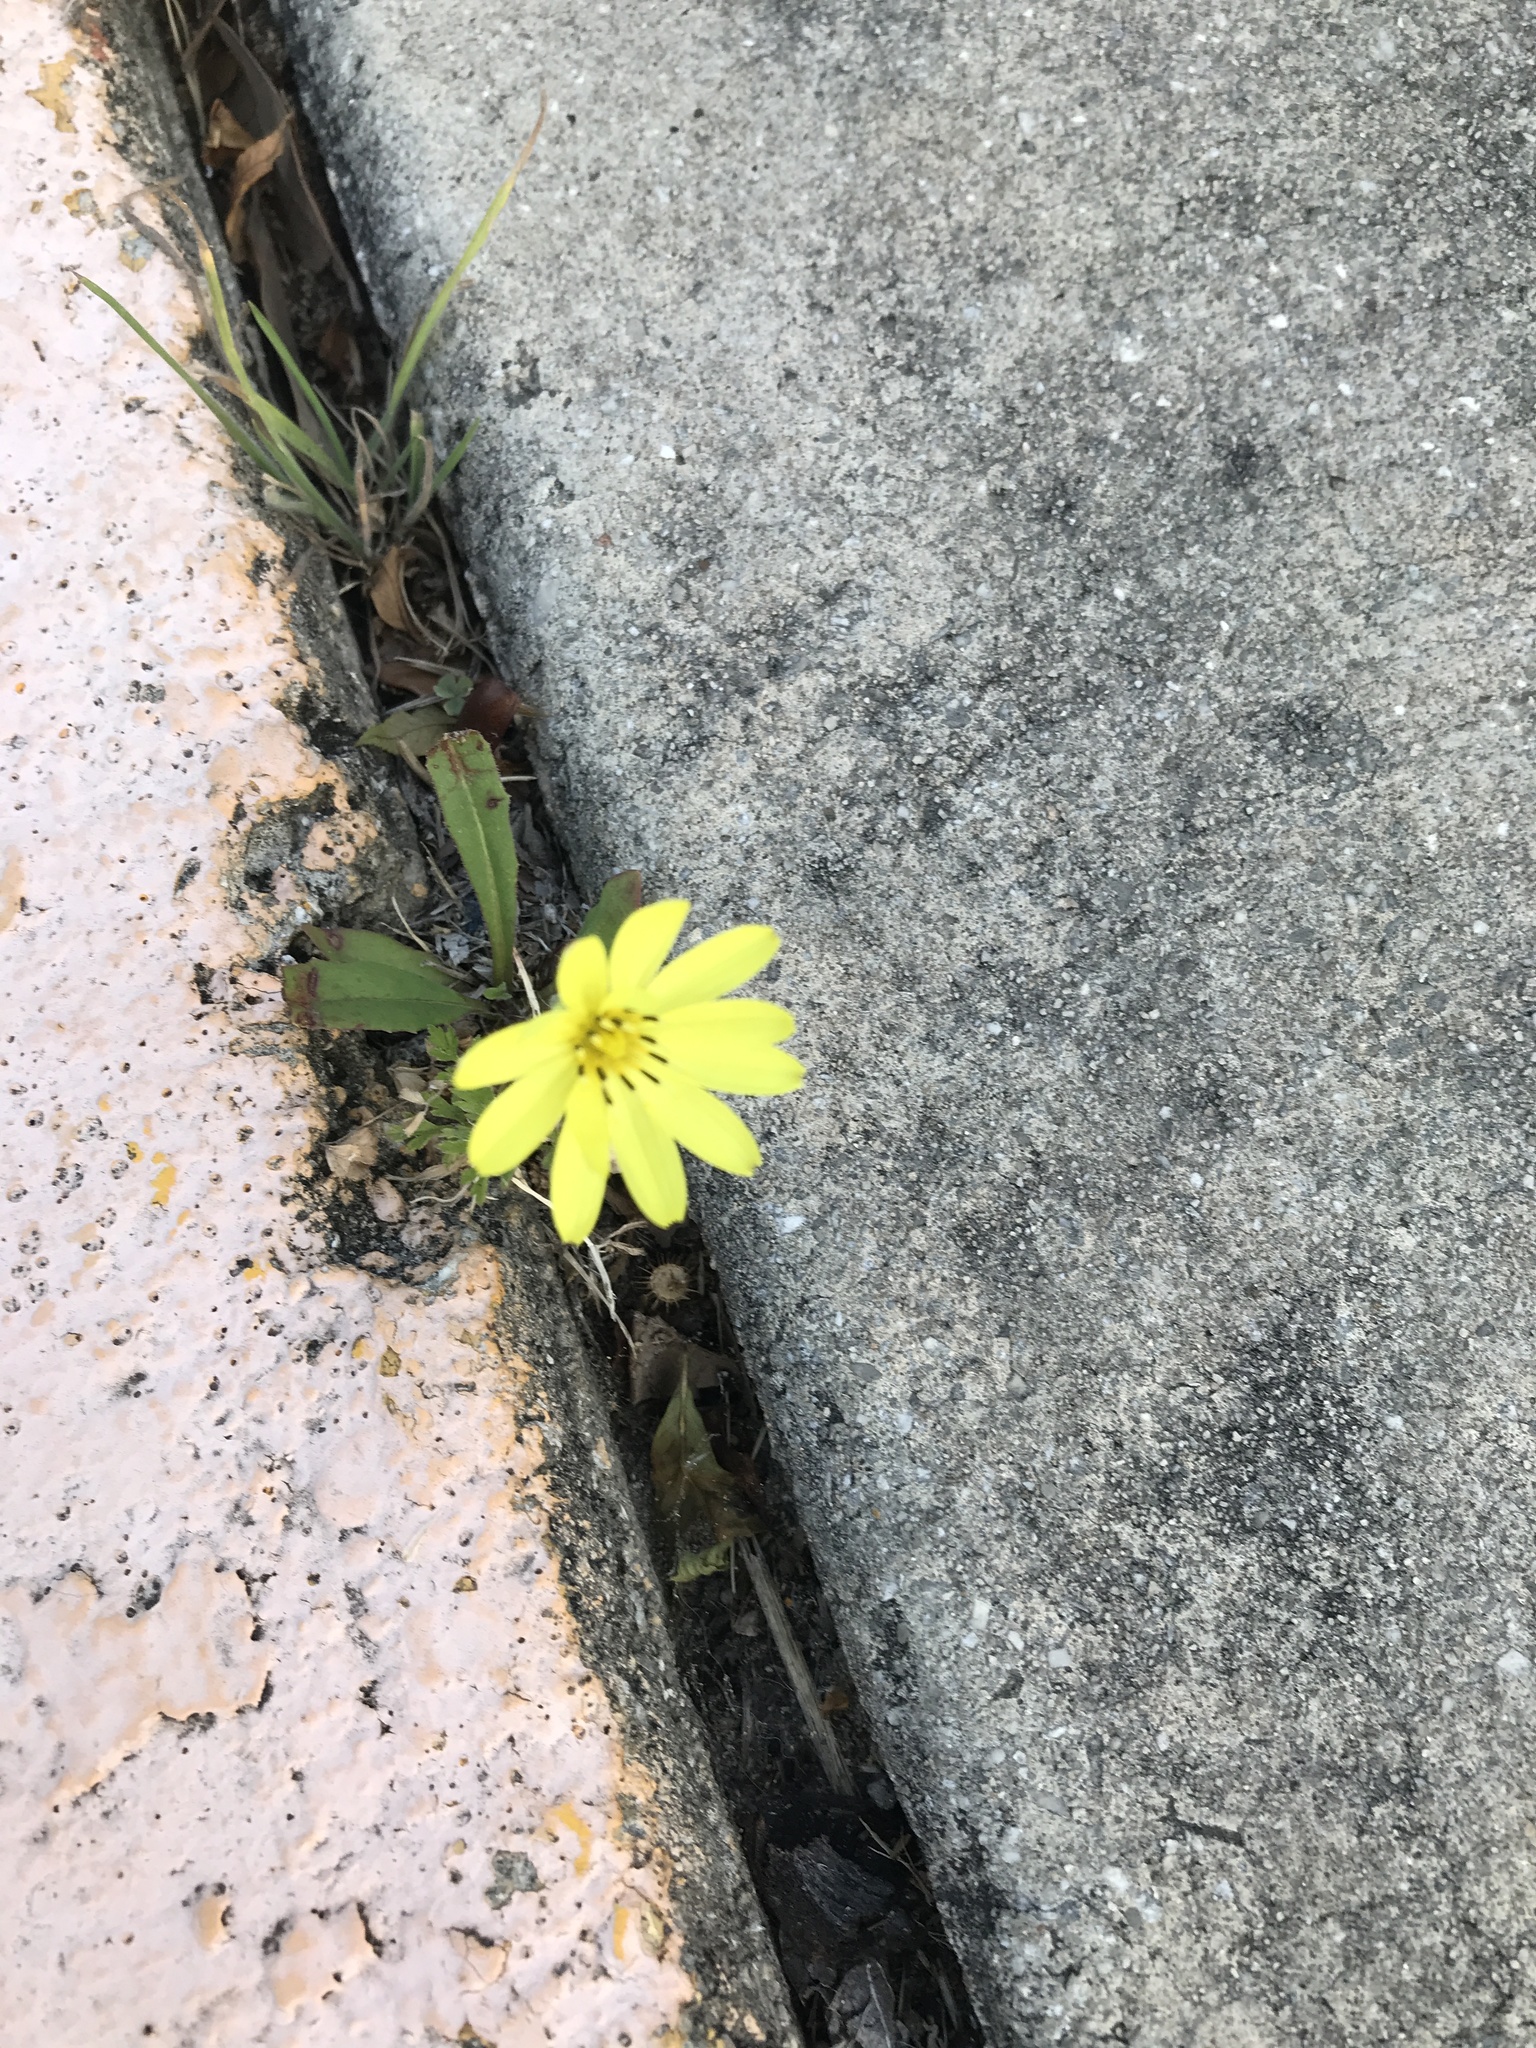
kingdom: Plantae
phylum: Tracheophyta
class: Magnoliopsida
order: Asterales
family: Asteraceae
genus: Pyrrhopappus
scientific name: Pyrrhopappus pauciflorus
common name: Texas false dandelion
